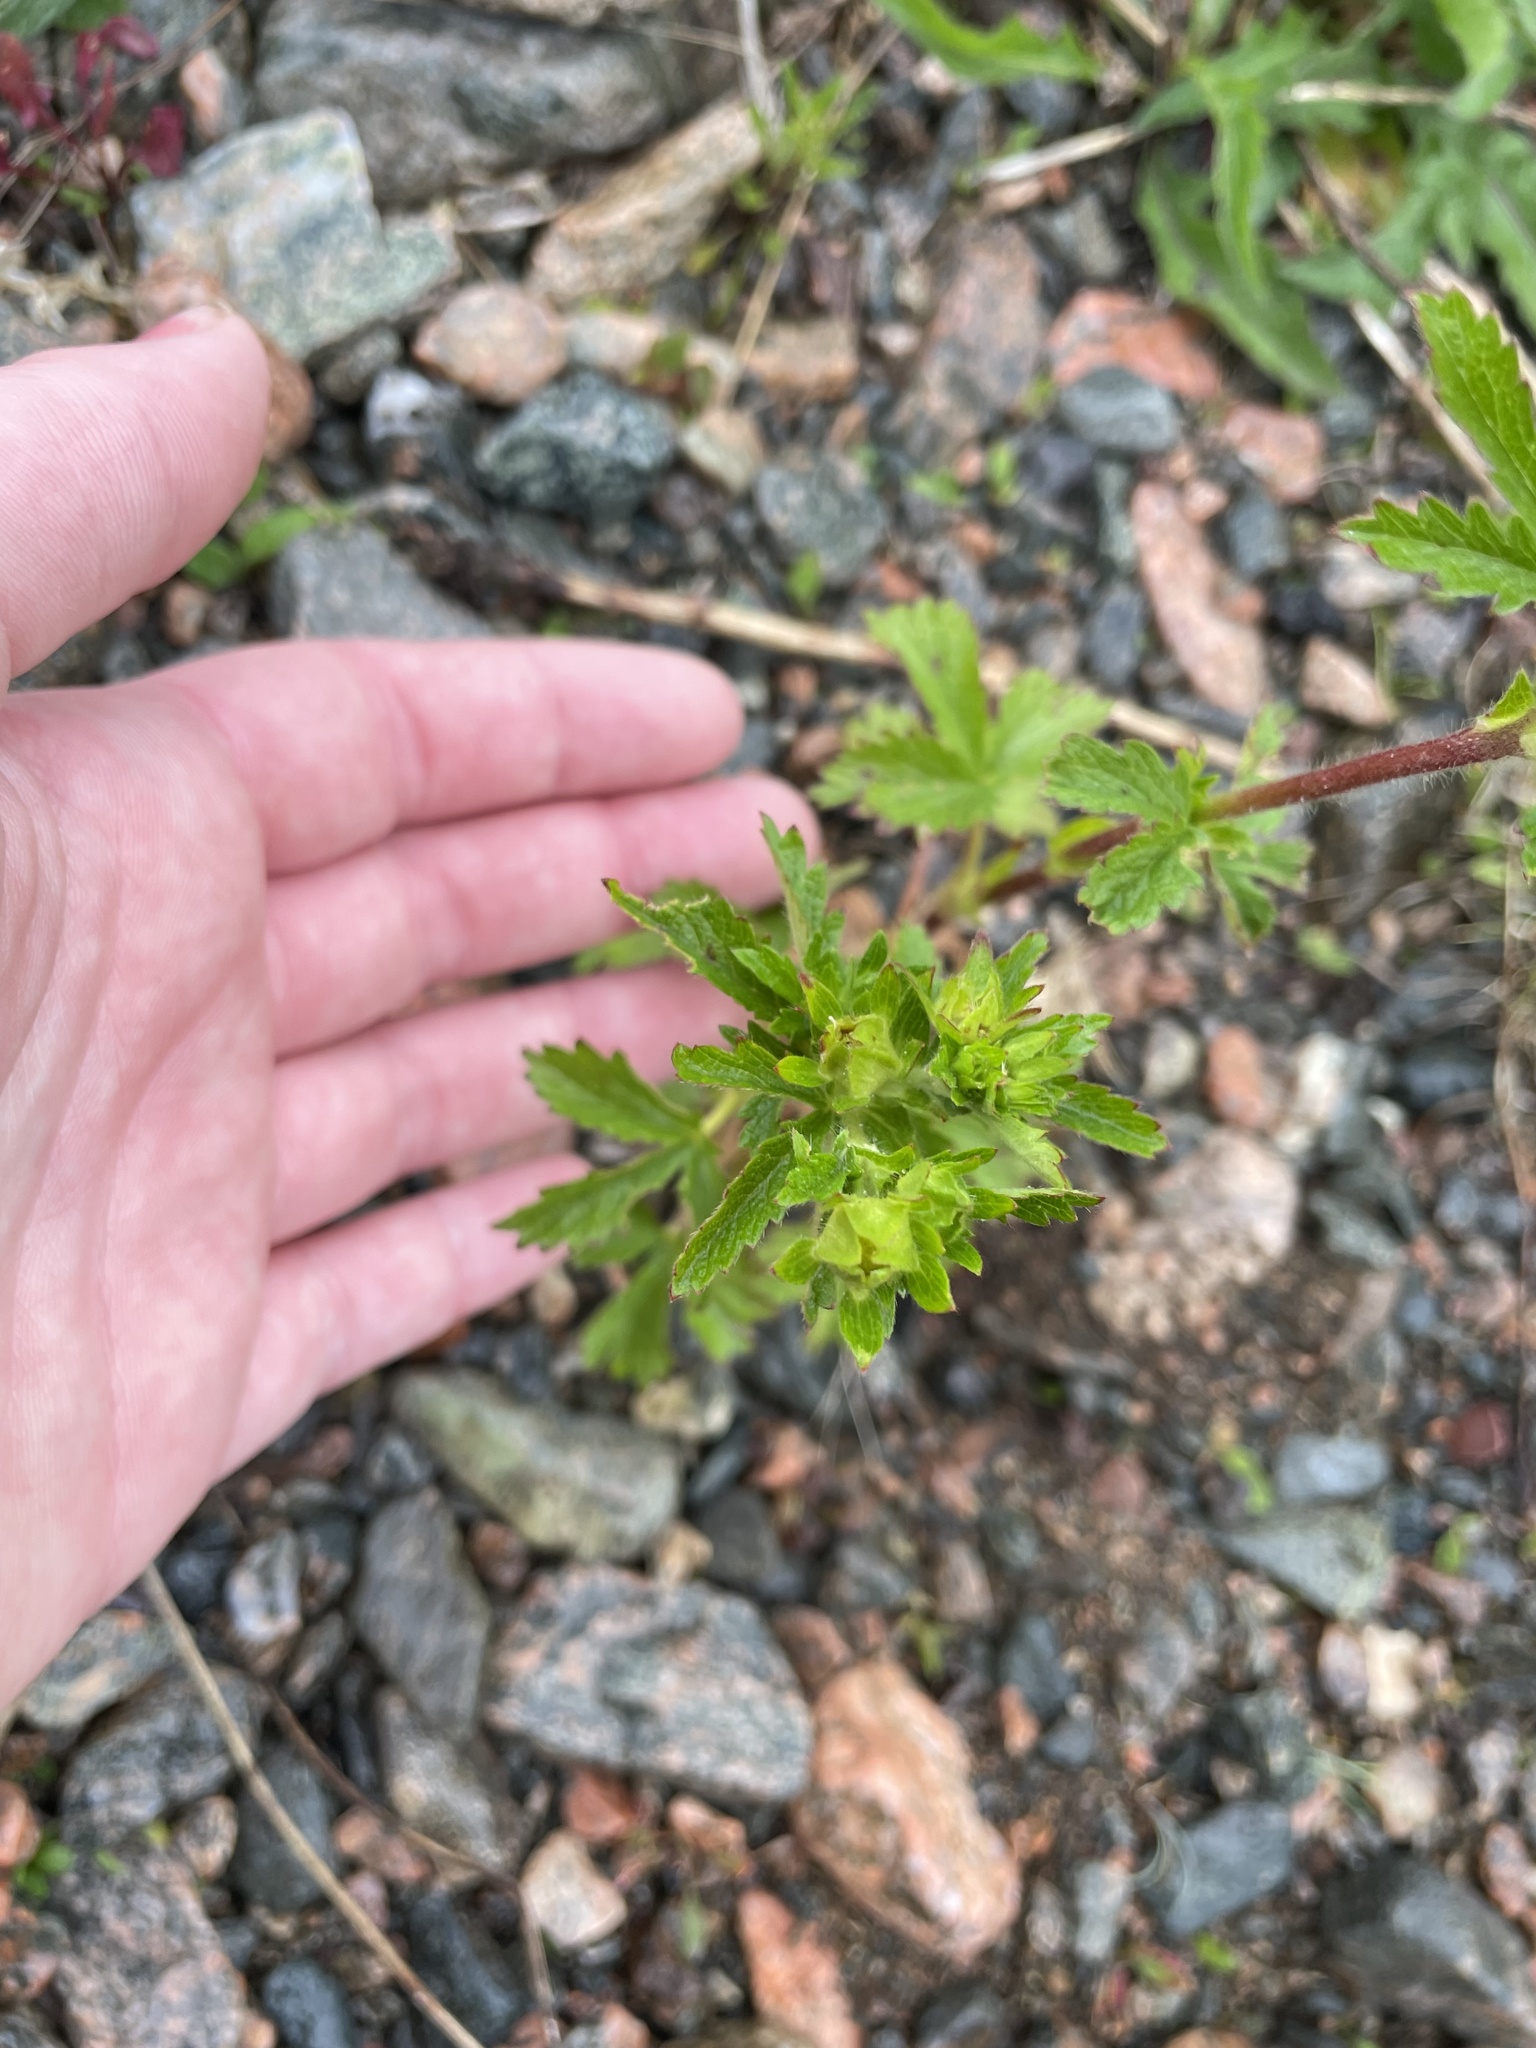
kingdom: Plantae
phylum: Tracheophyta
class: Magnoliopsida
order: Rosales
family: Rosaceae
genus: Potentilla
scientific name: Potentilla norvegica
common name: Ternate-leaved cinquefoil
